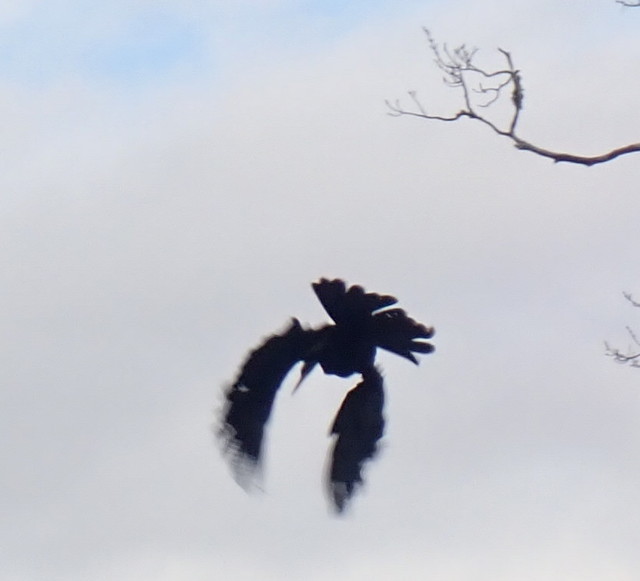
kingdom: Animalia
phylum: Chordata
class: Aves
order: Suliformes
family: Anhingidae
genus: Anhinga
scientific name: Anhinga anhinga
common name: Anhinga
